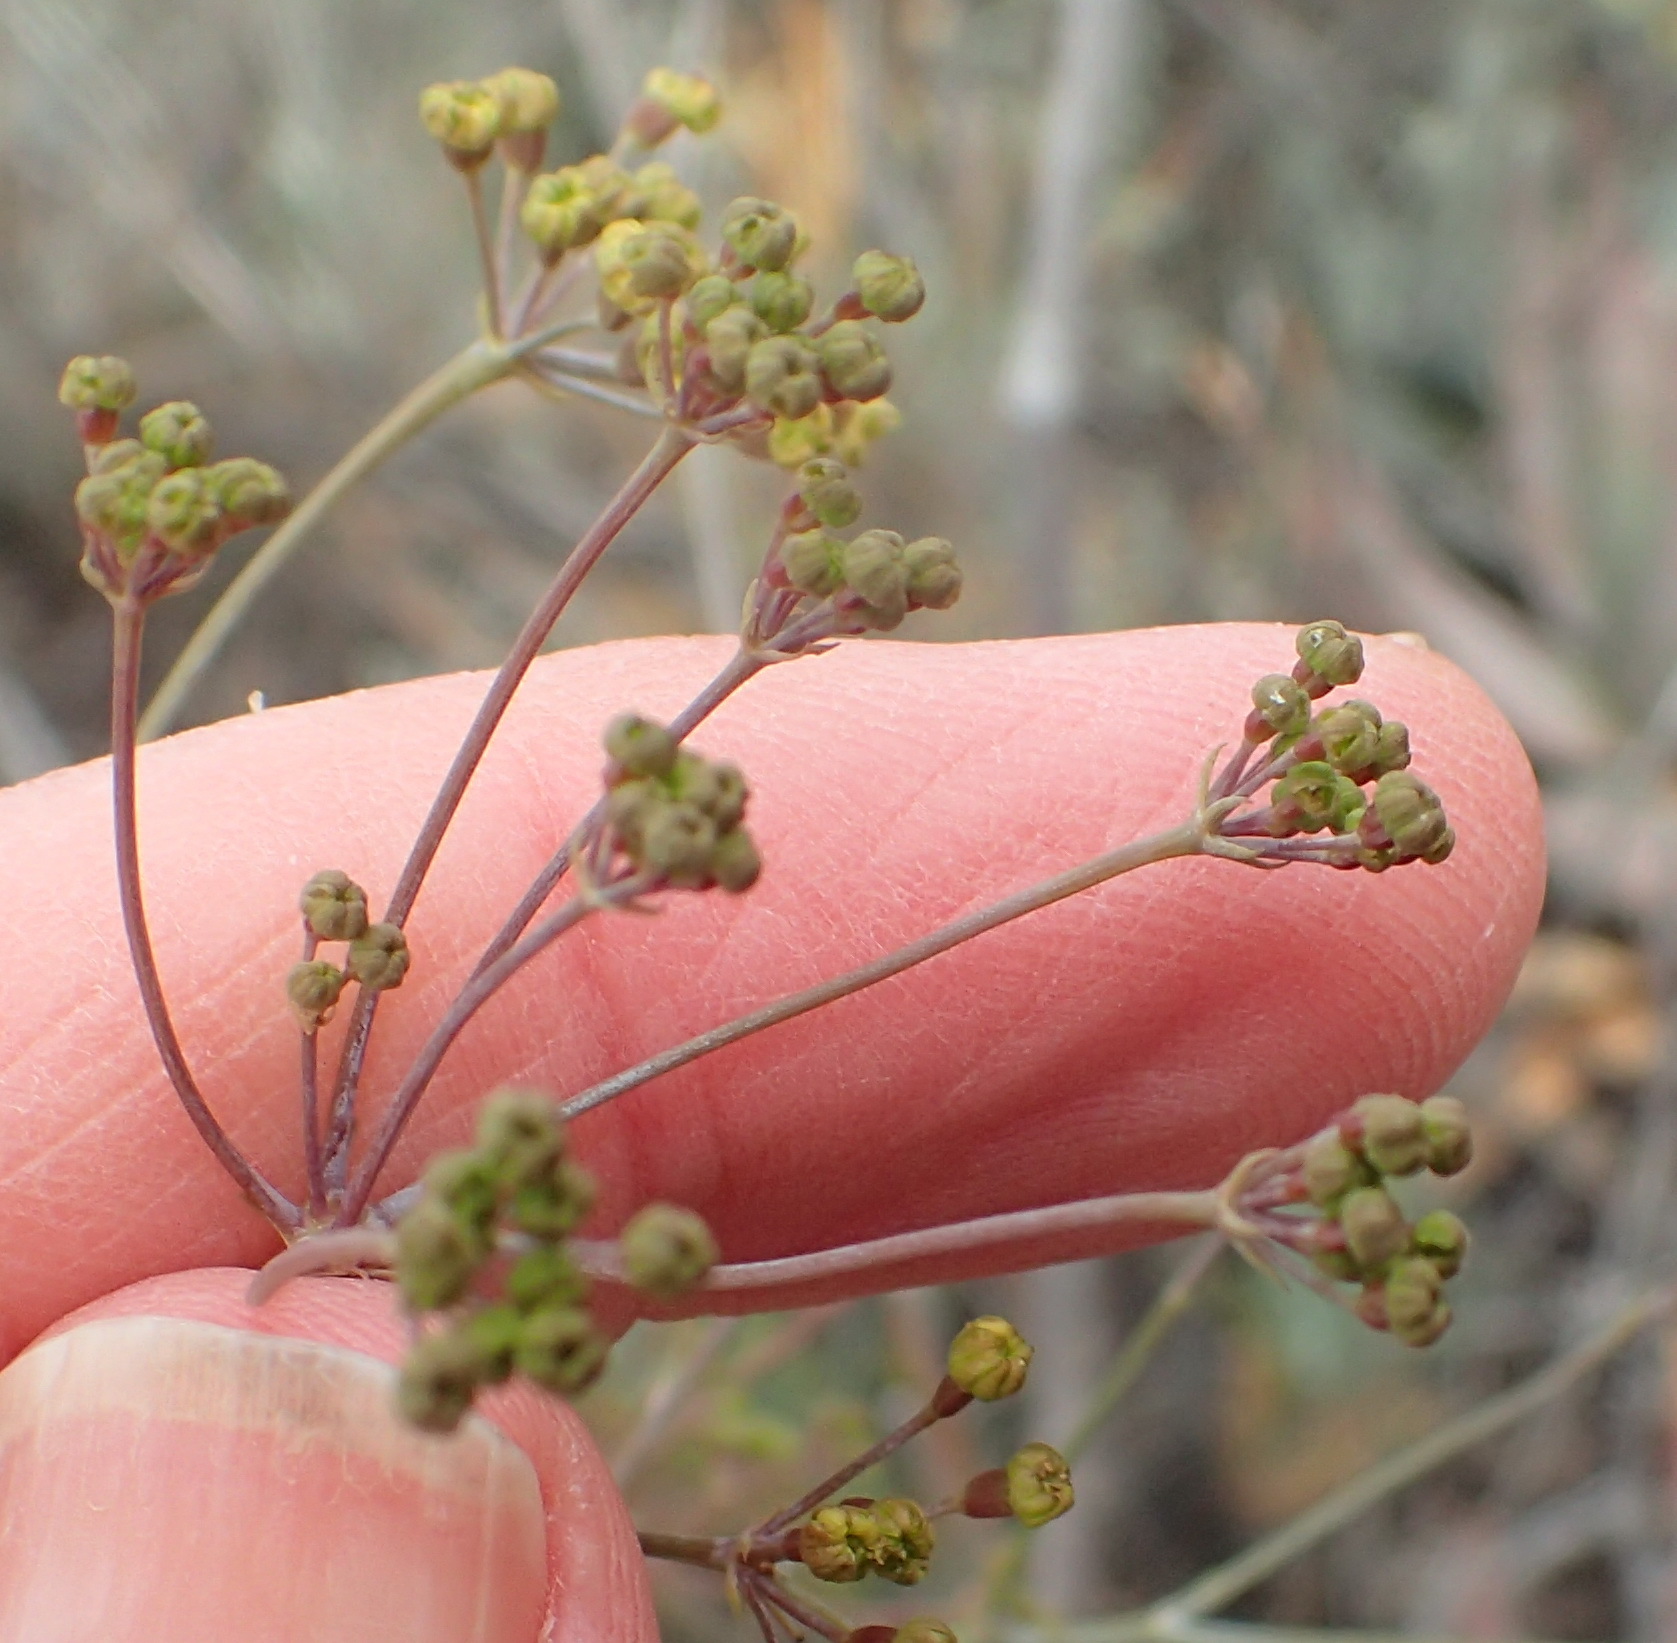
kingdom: Plantae
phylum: Tracheophyta
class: Magnoliopsida
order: Apiales
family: Apiaceae
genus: Anginon
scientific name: Anginon swellendamense
